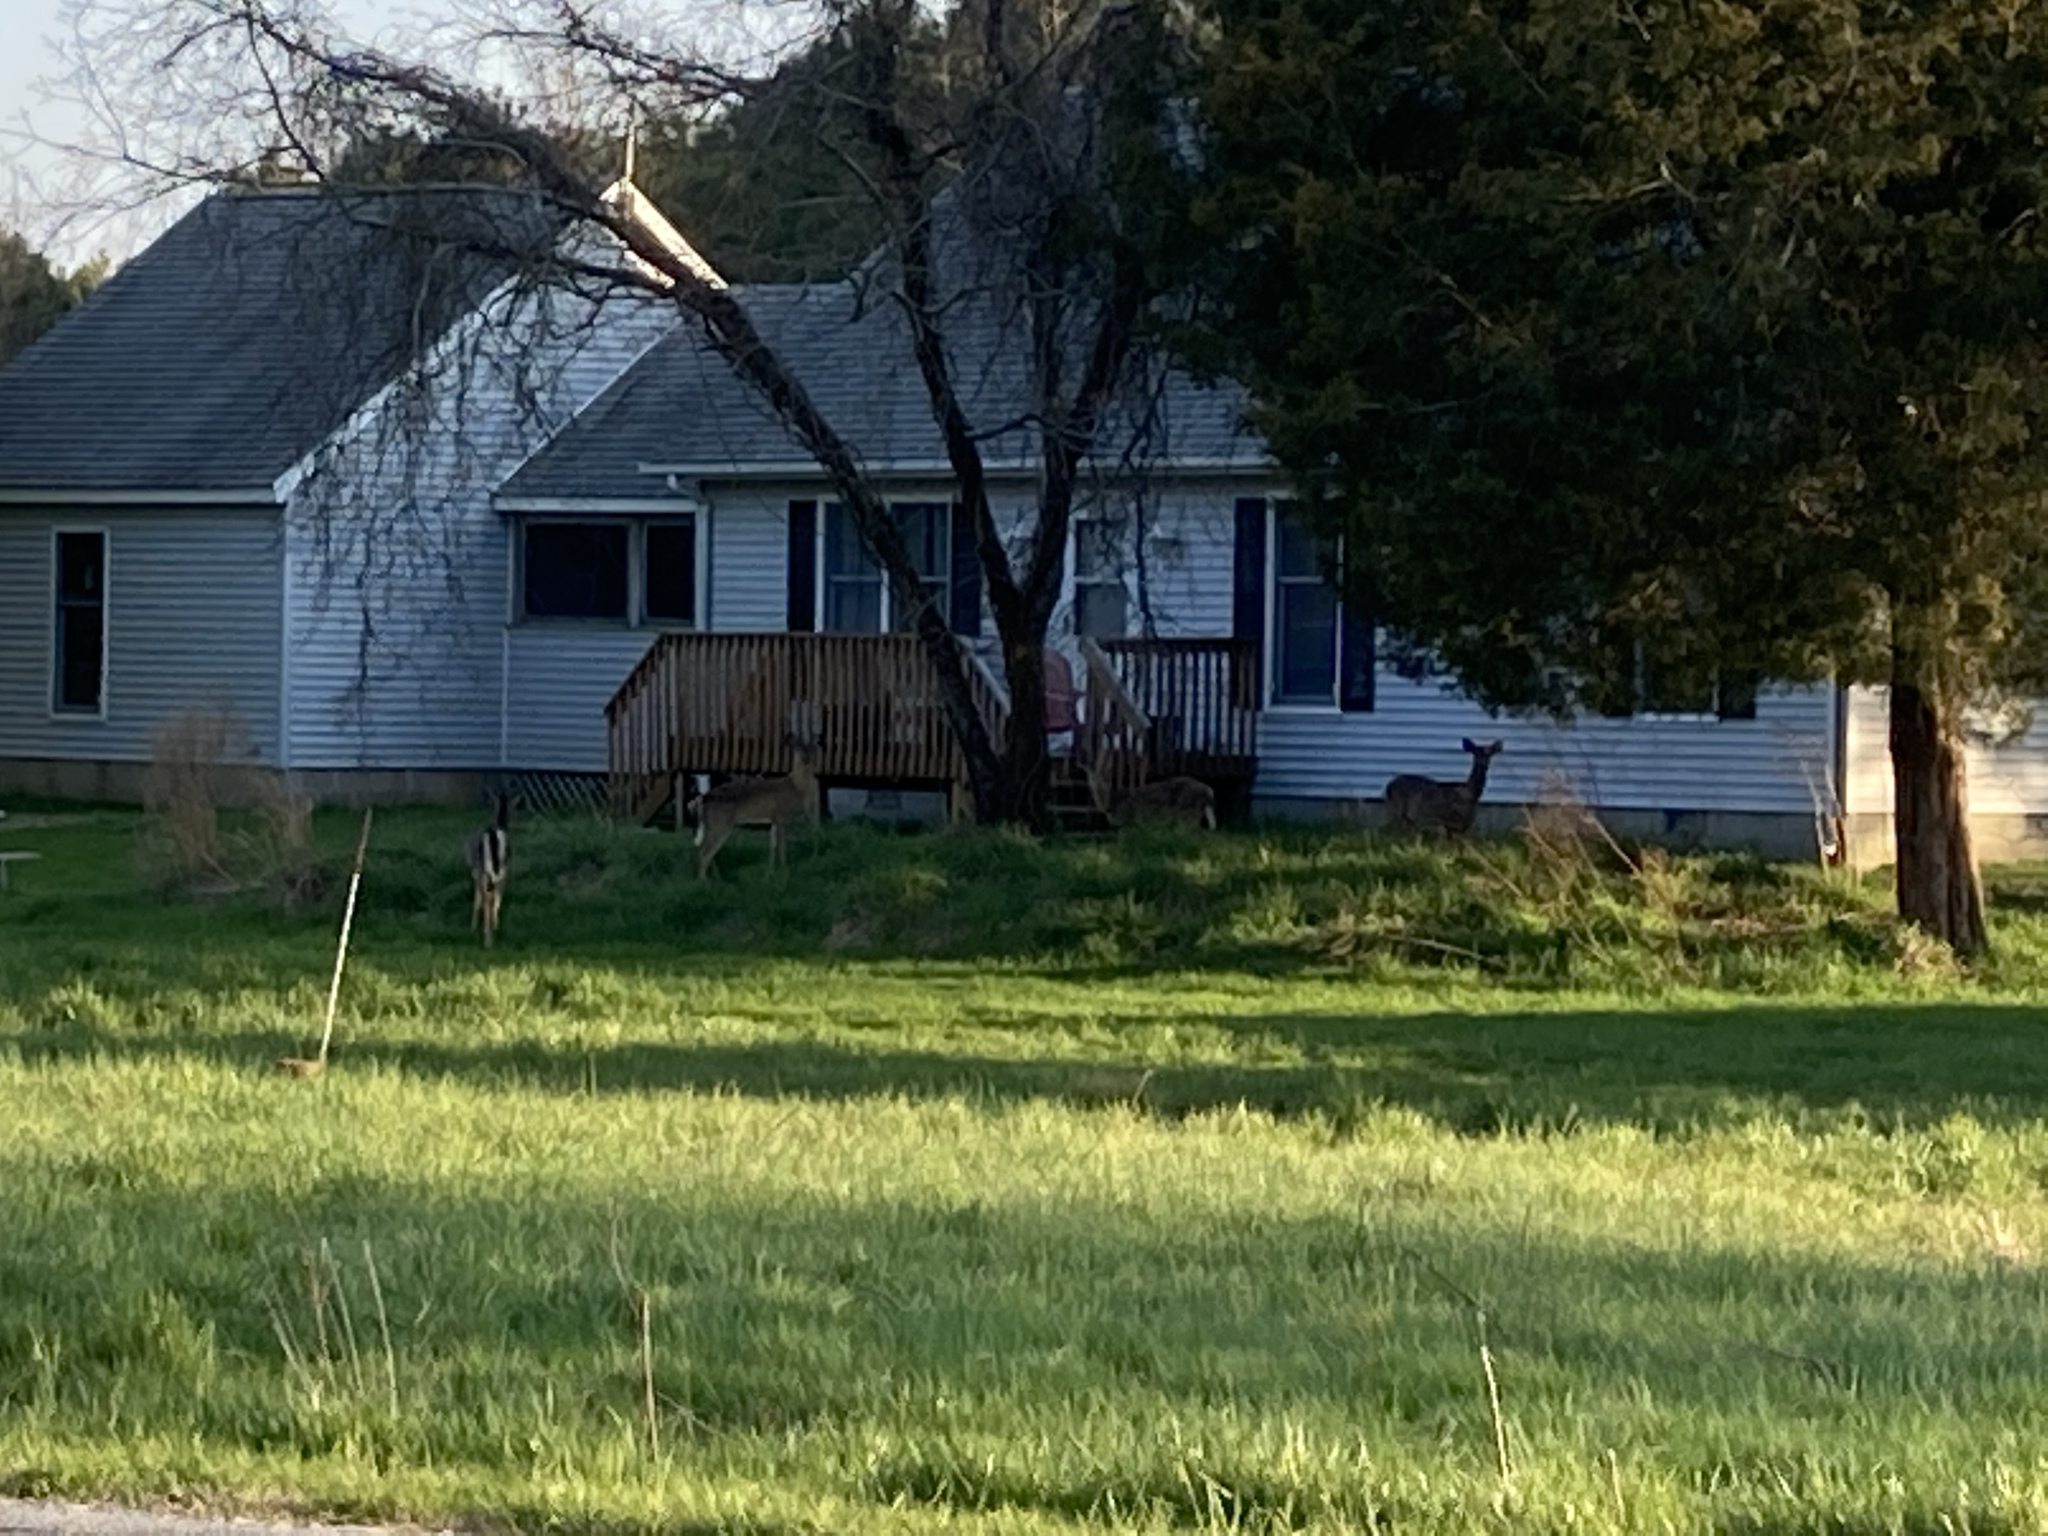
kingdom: Animalia
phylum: Chordata
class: Mammalia
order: Artiodactyla
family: Cervidae
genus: Odocoileus
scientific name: Odocoileus virginianus
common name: White-tailed deer
